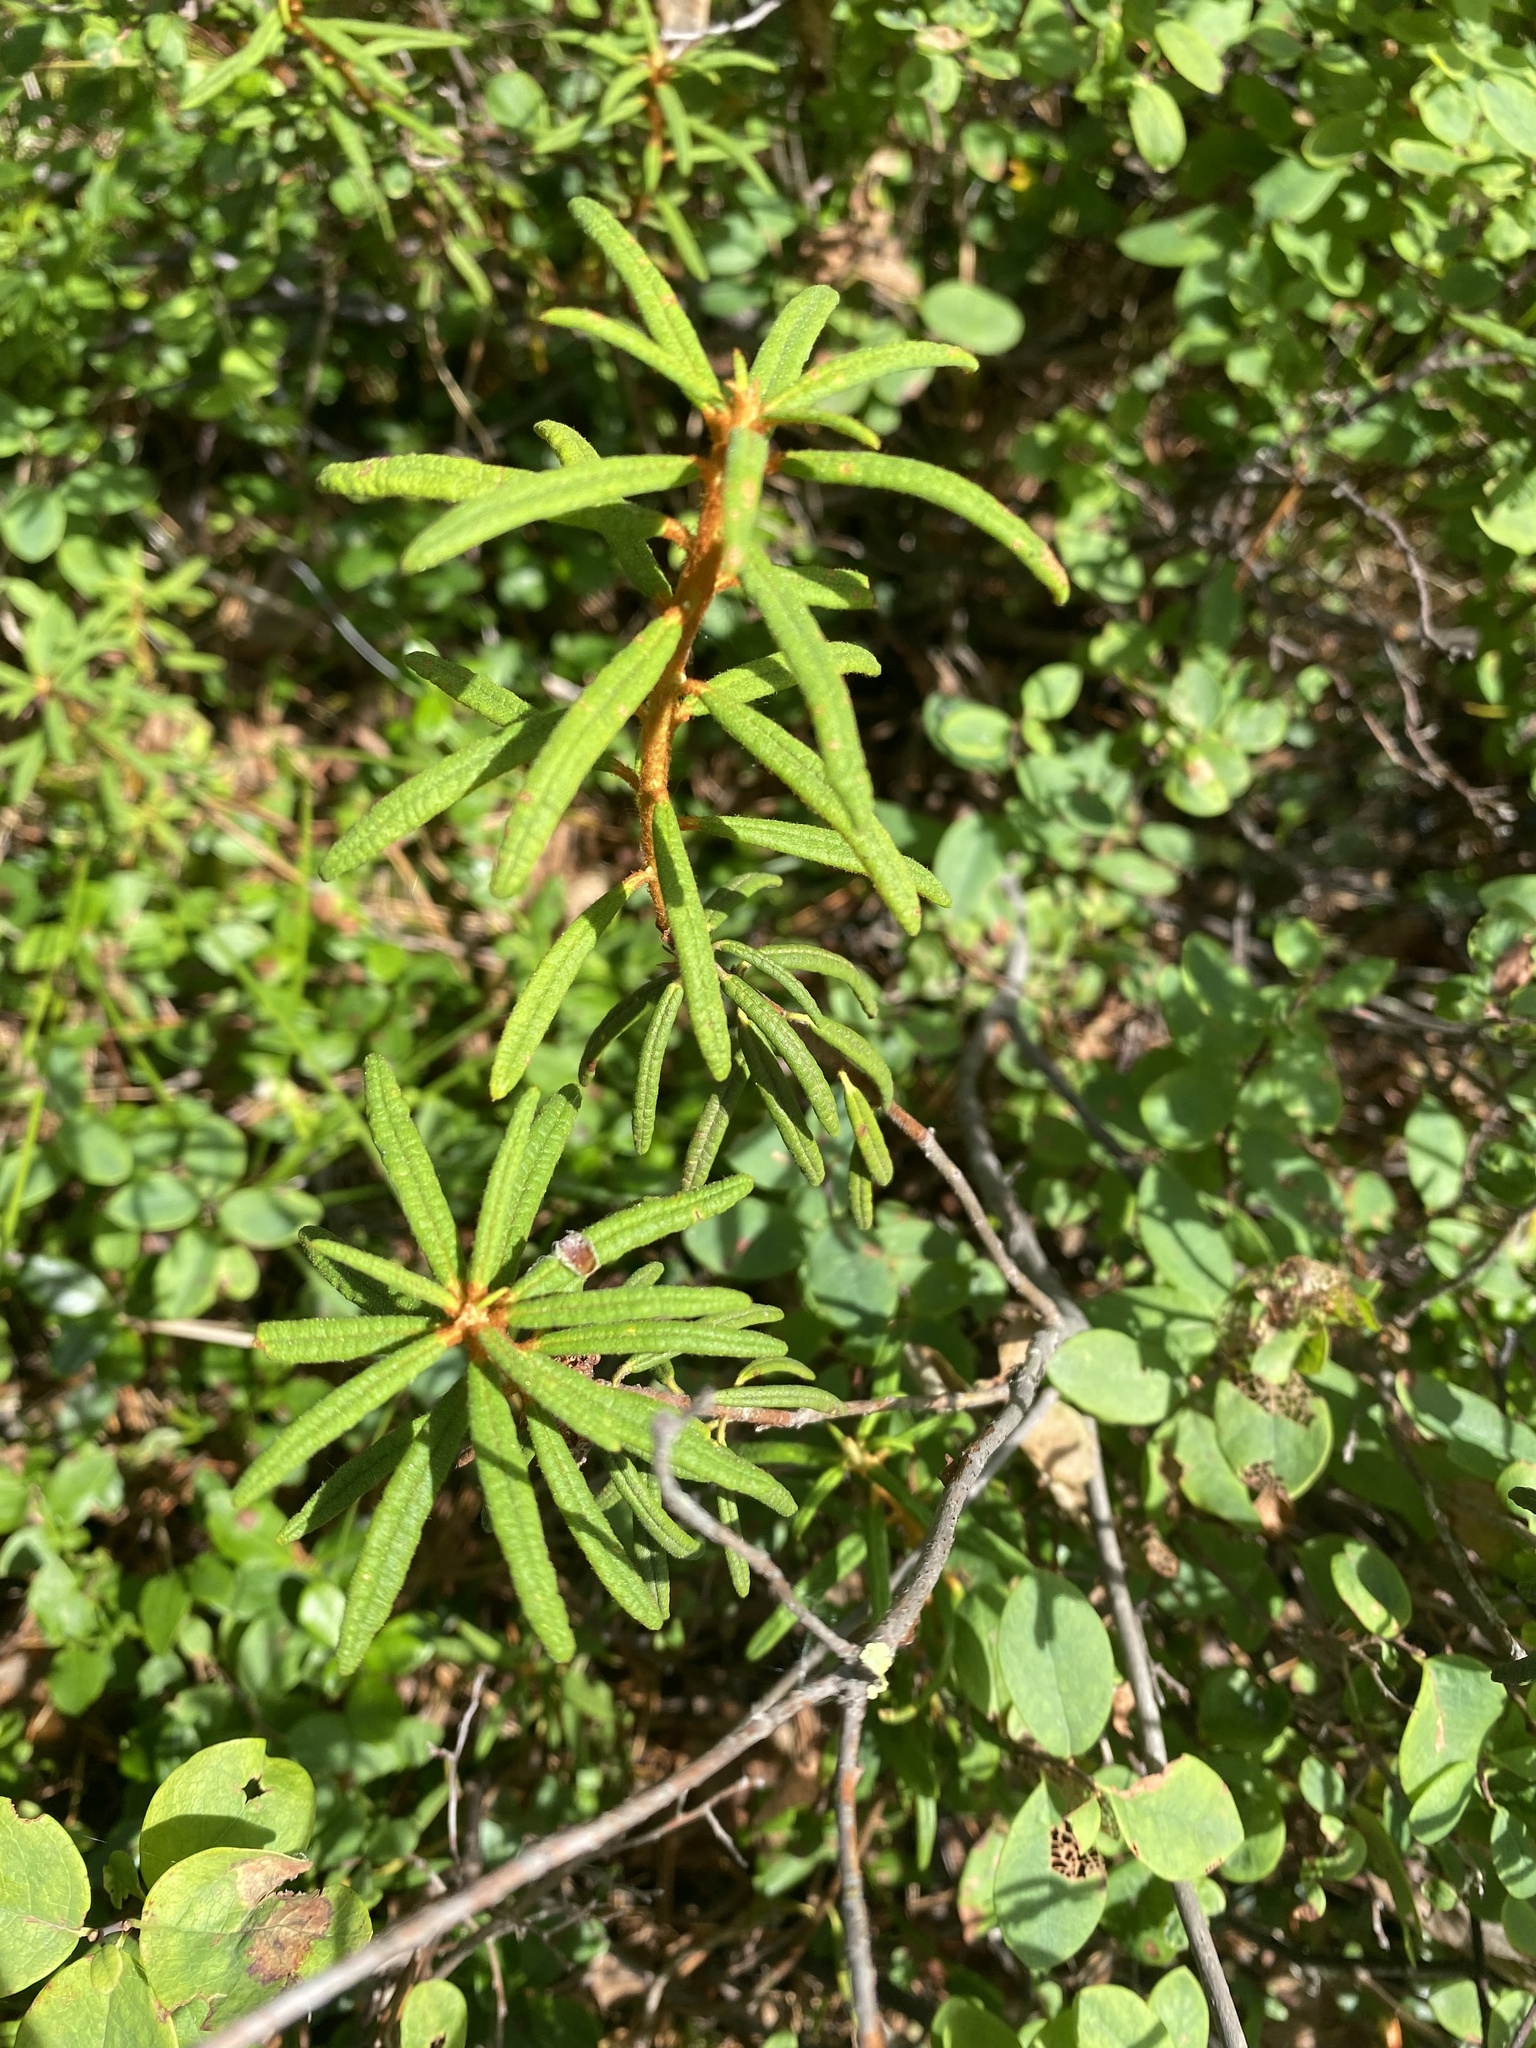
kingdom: Plantae
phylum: Tracheophyta
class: Magnoliopsida
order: Ericales
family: Ericaceae
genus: Rhododendron
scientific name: Rhododendron tomentosum
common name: Marsh labrador tea
